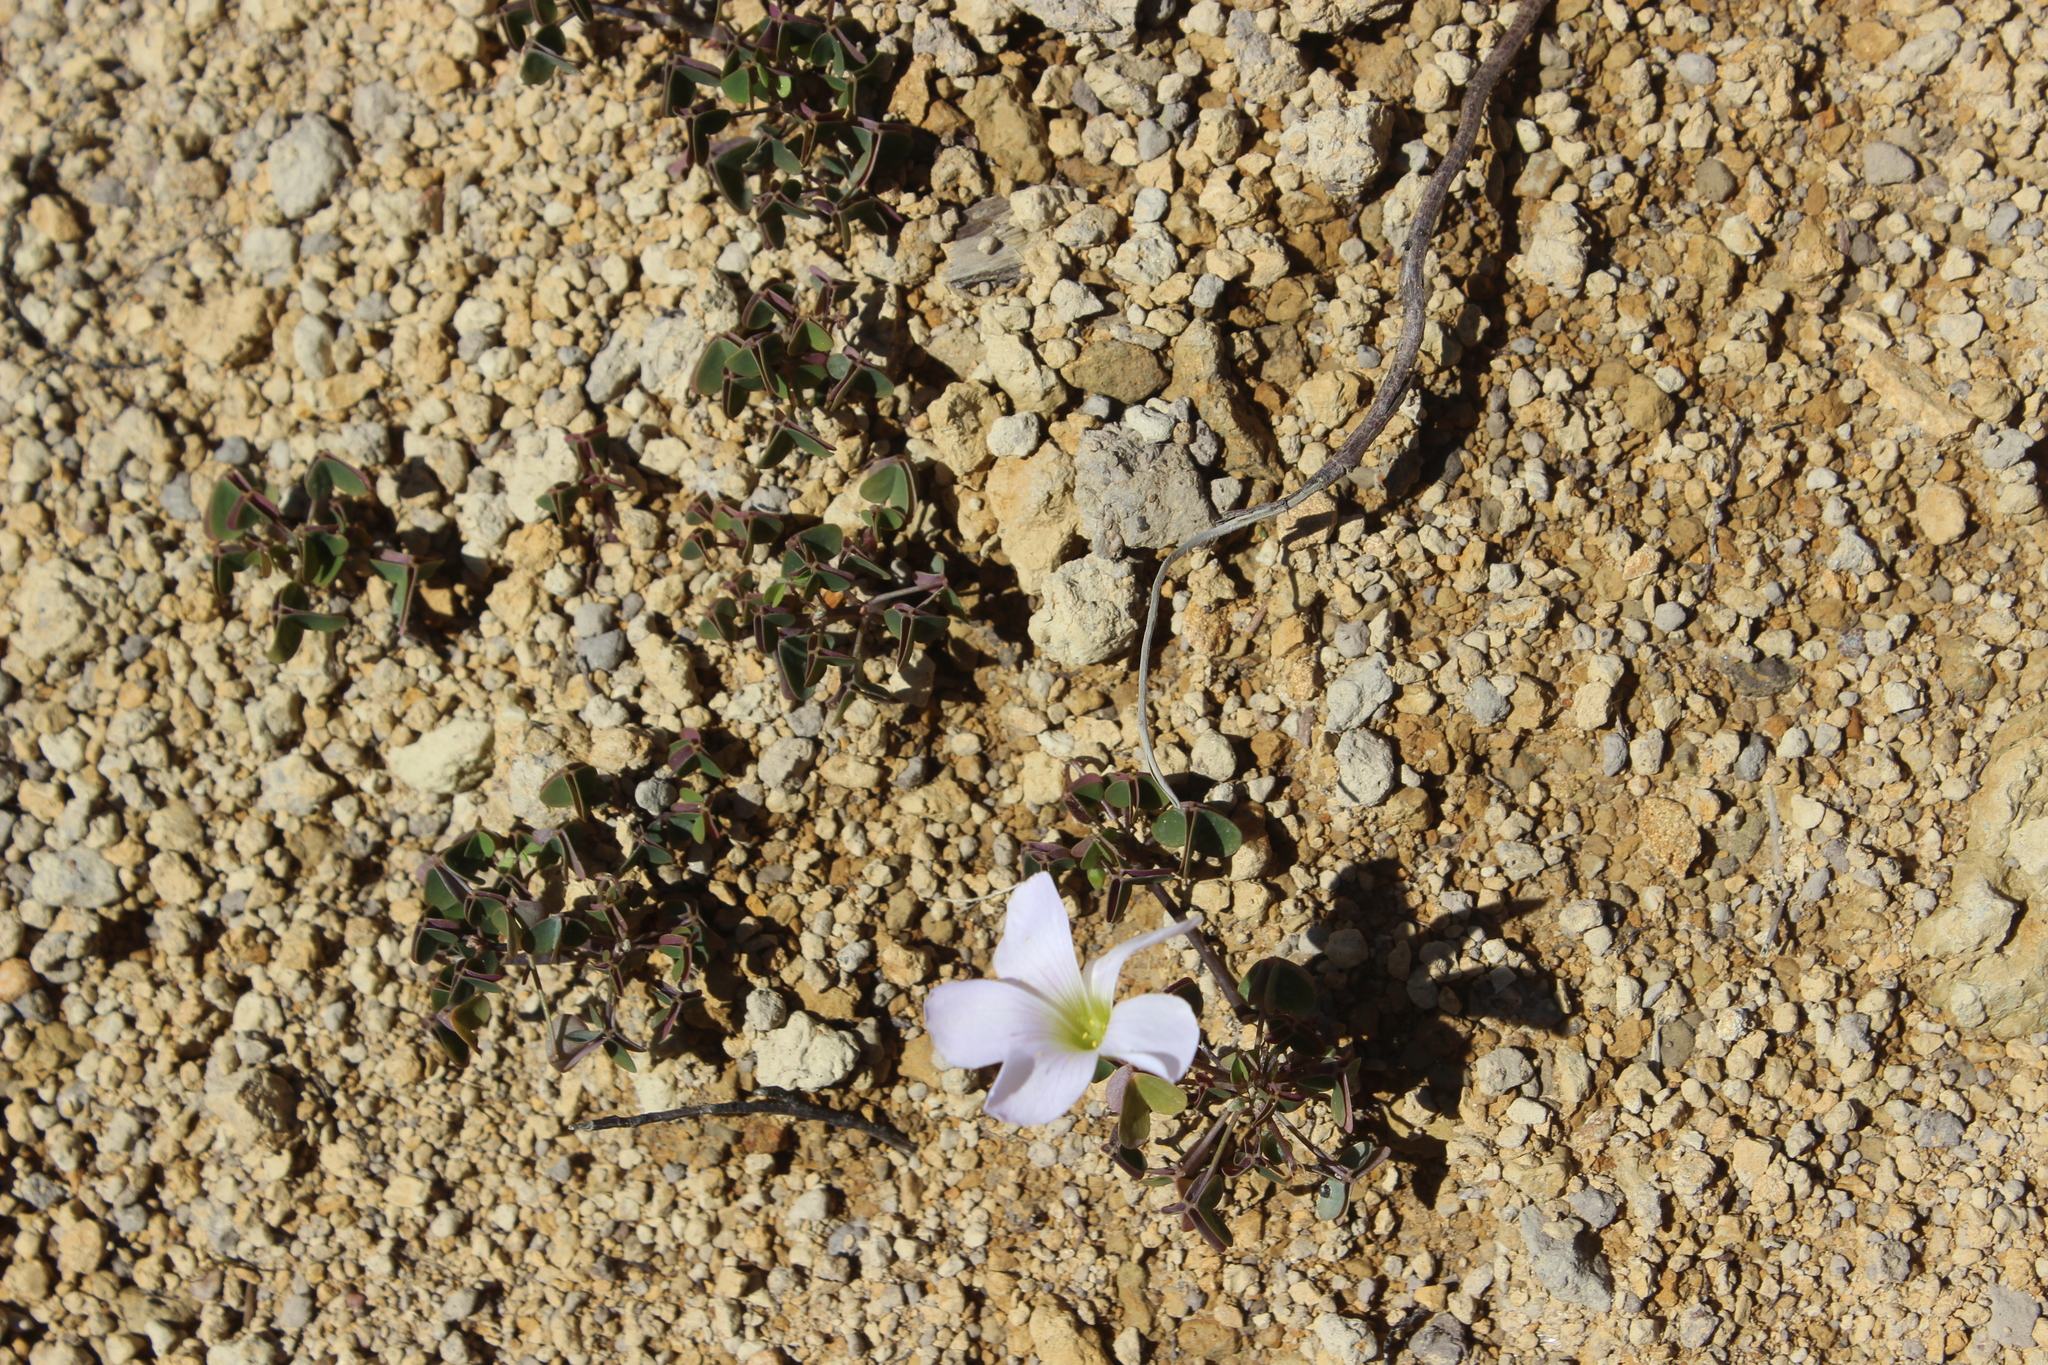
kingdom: Plantae
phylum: Tracheophyta
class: Magnoliopsida
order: Oxalidales
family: Oxalidaceae
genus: Oxalis
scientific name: Oxalis incarnata
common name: Pale pink-sorrel
